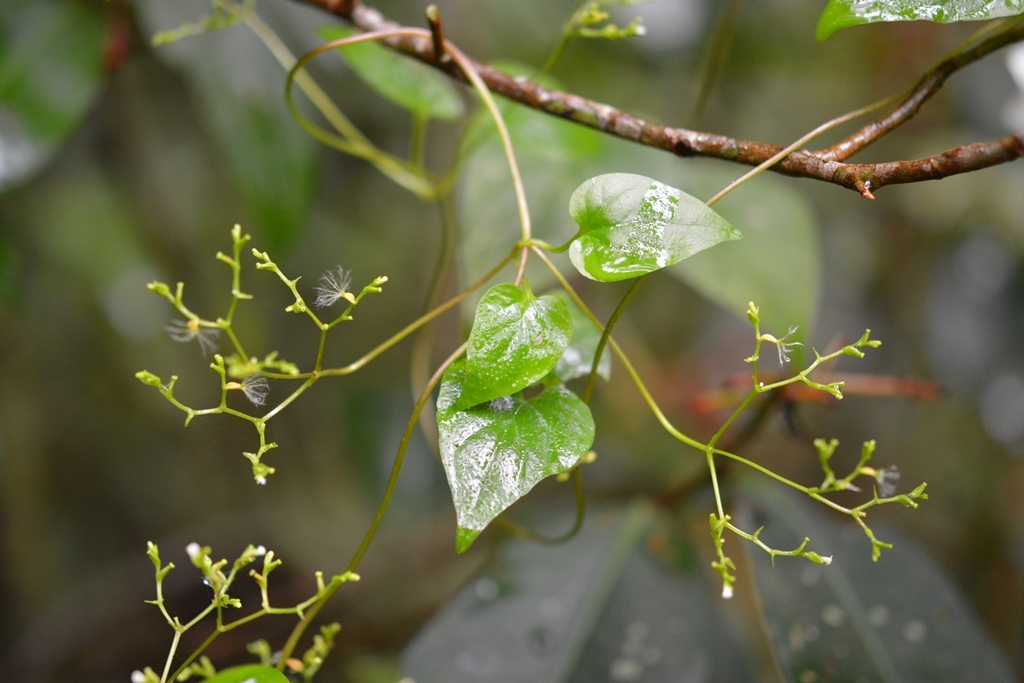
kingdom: Plantae
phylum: Tracheophyta
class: Magnoliopsida
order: Dipsacales
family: Caprifoliaceae
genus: Valeriana
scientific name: Valeriana scandens
